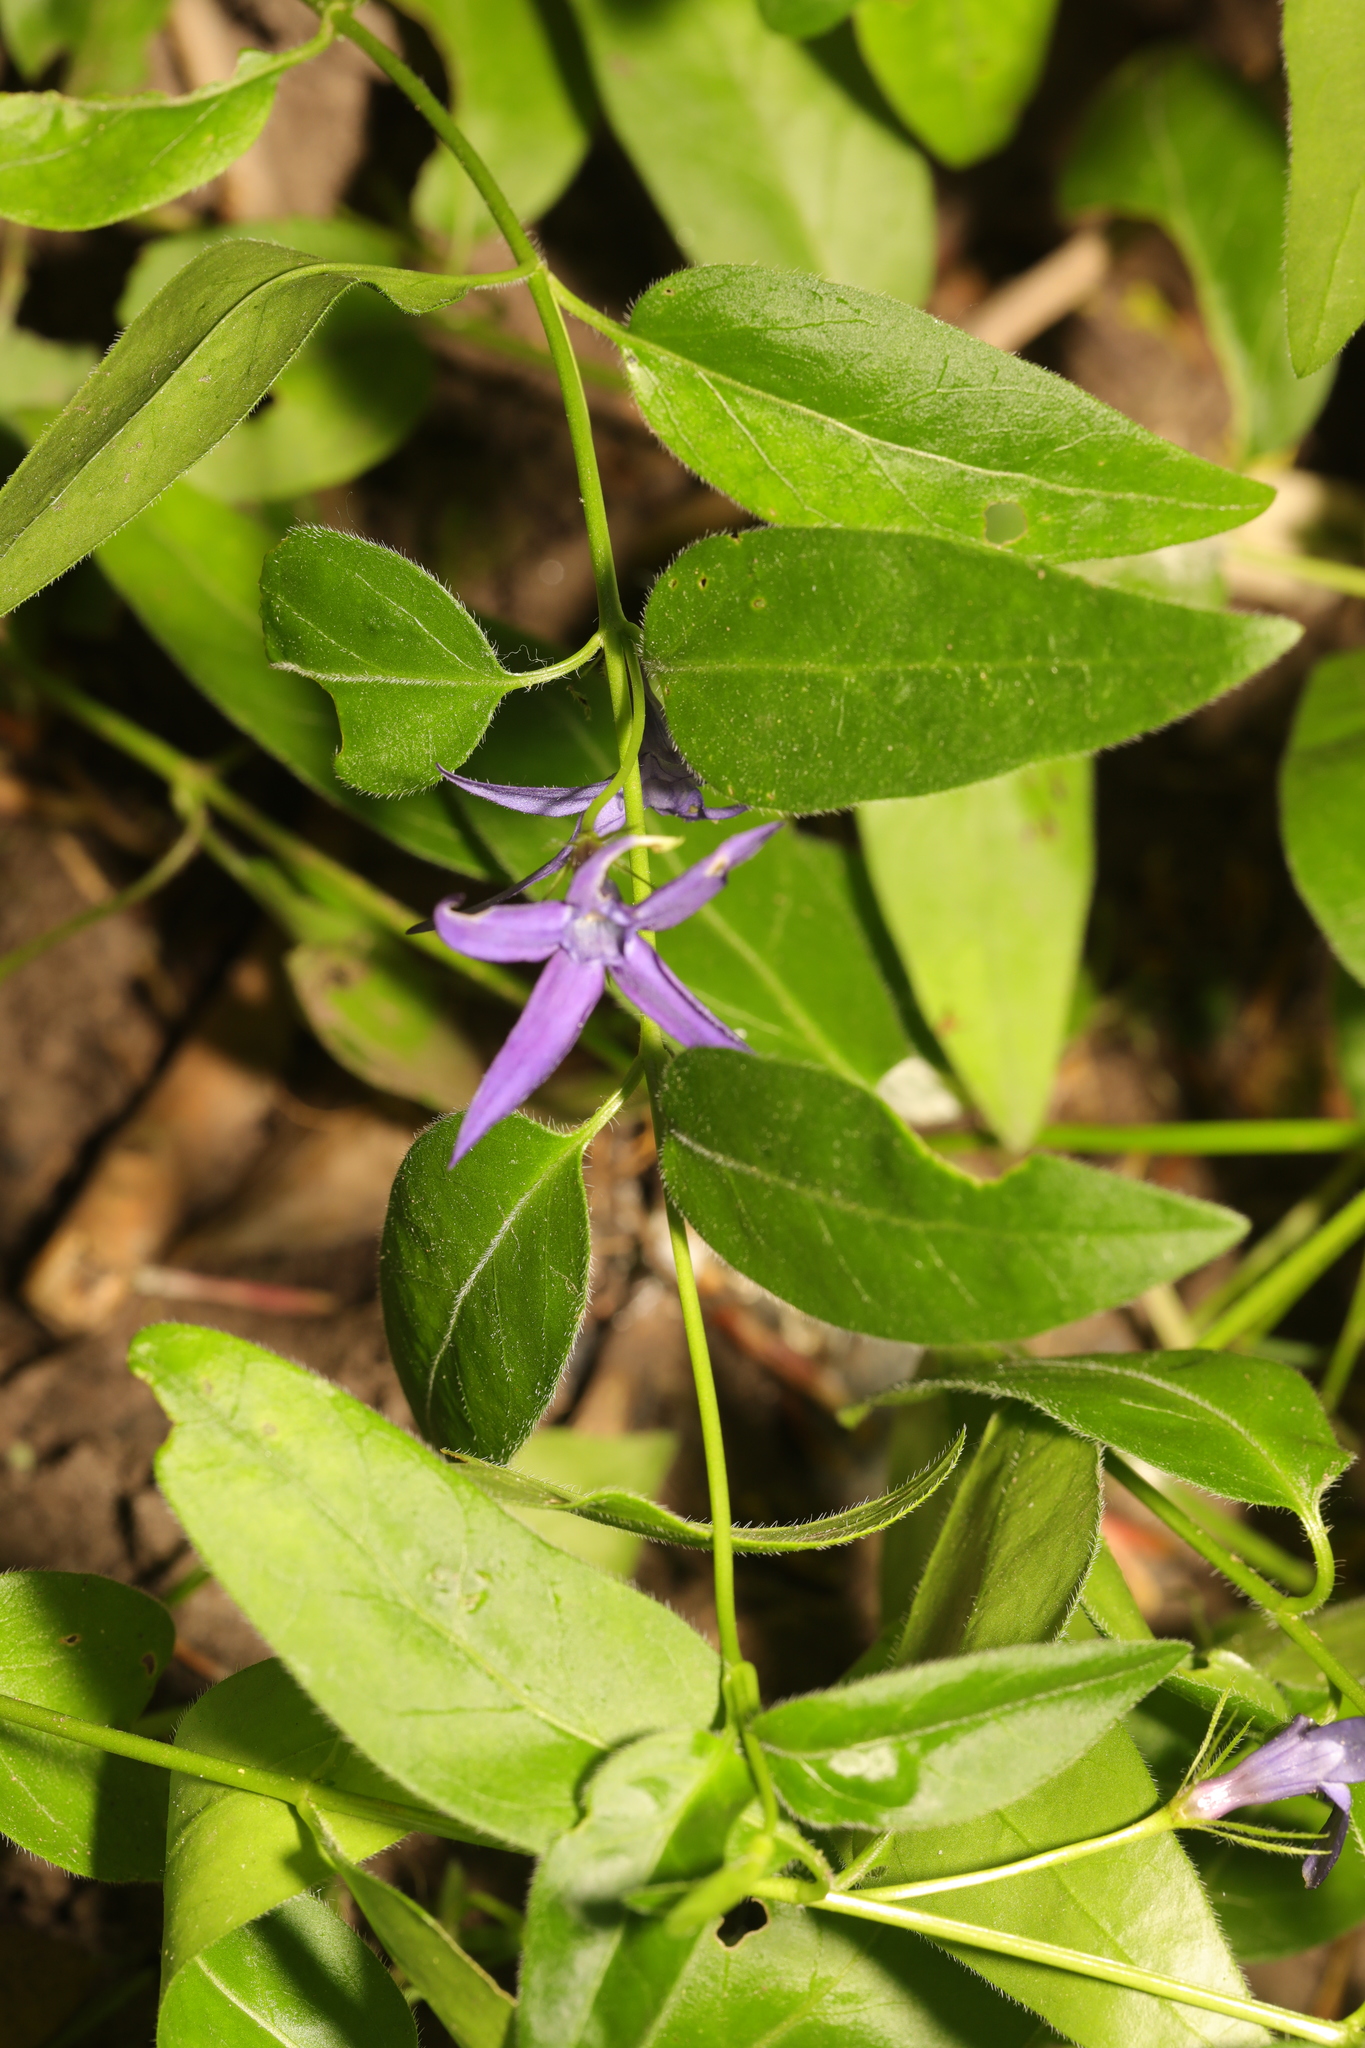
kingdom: Plantae
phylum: Tracheophyta
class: Magnoliopsida
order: Gentianales
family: Apocynaceae
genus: Vinca
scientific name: Vinca major
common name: Greater periwinkle
